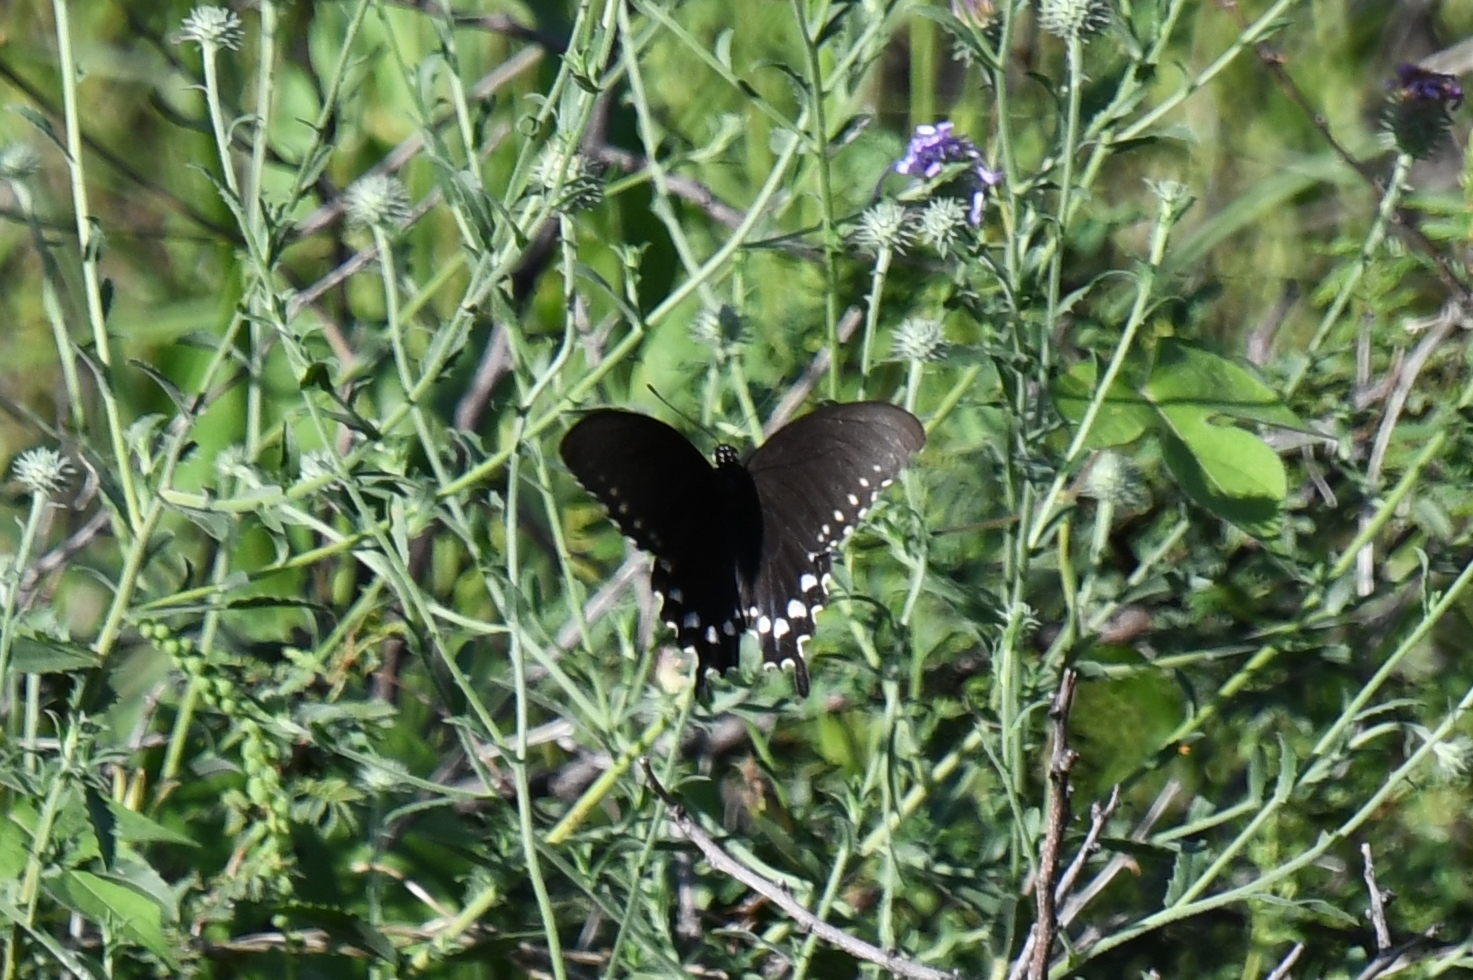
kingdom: Animalia
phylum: Arthropoda
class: Insecta
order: Lepidoptera
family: Papilionidae
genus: Battus
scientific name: Battus philenor
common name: Pipevine swallowtail
